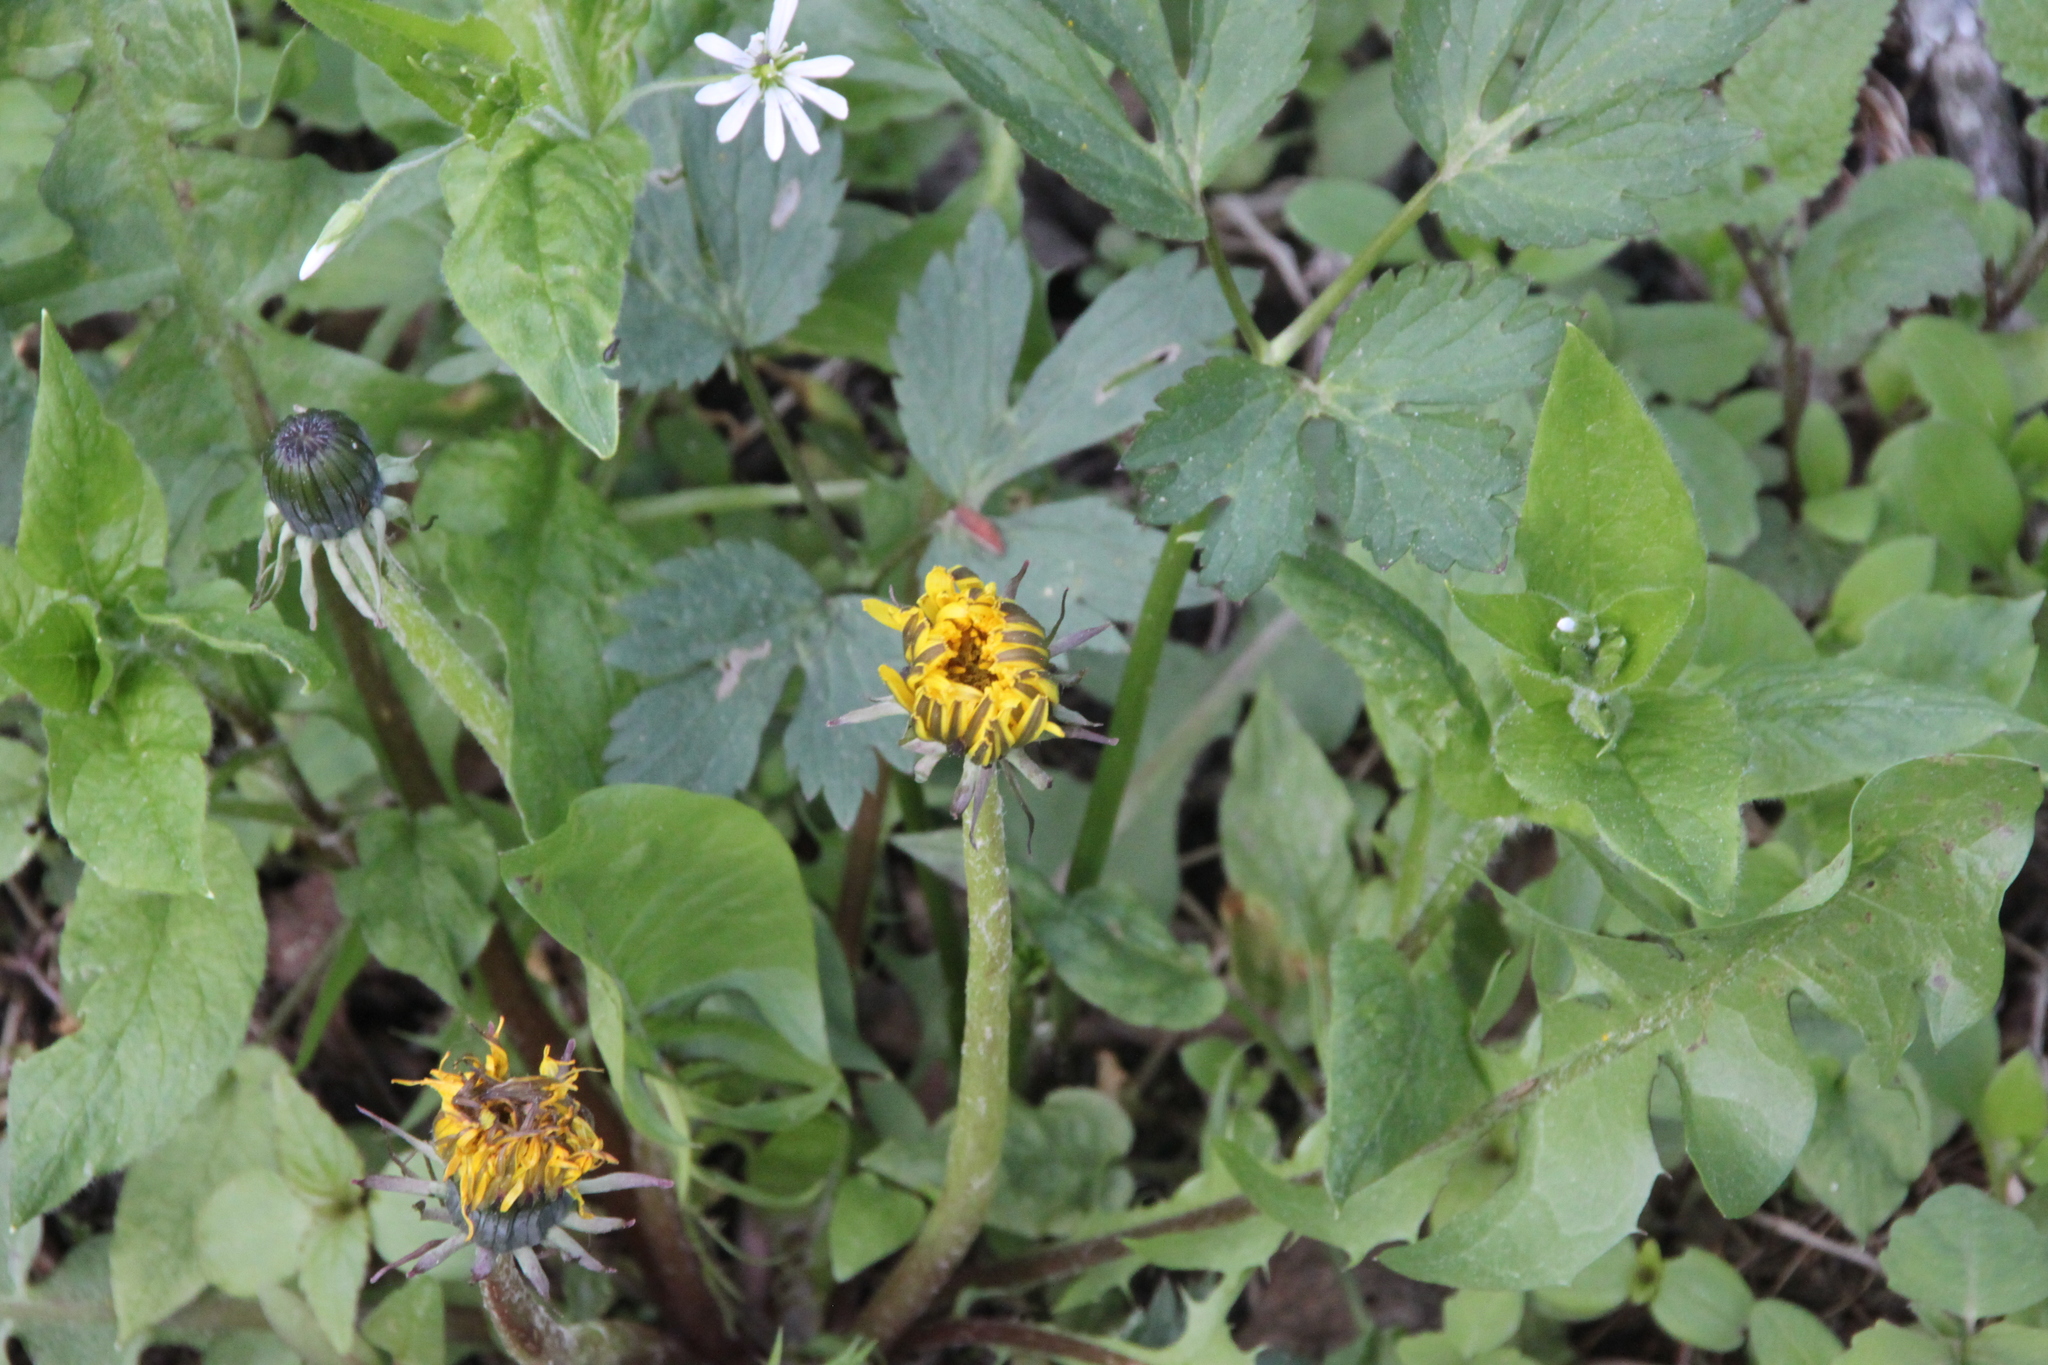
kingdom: Plantae
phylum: Tracheophyta
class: Magnoliopsida
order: Asterales
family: Asteraceae
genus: Taraxacum
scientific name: Taraxacum officinale
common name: Common dandelion
